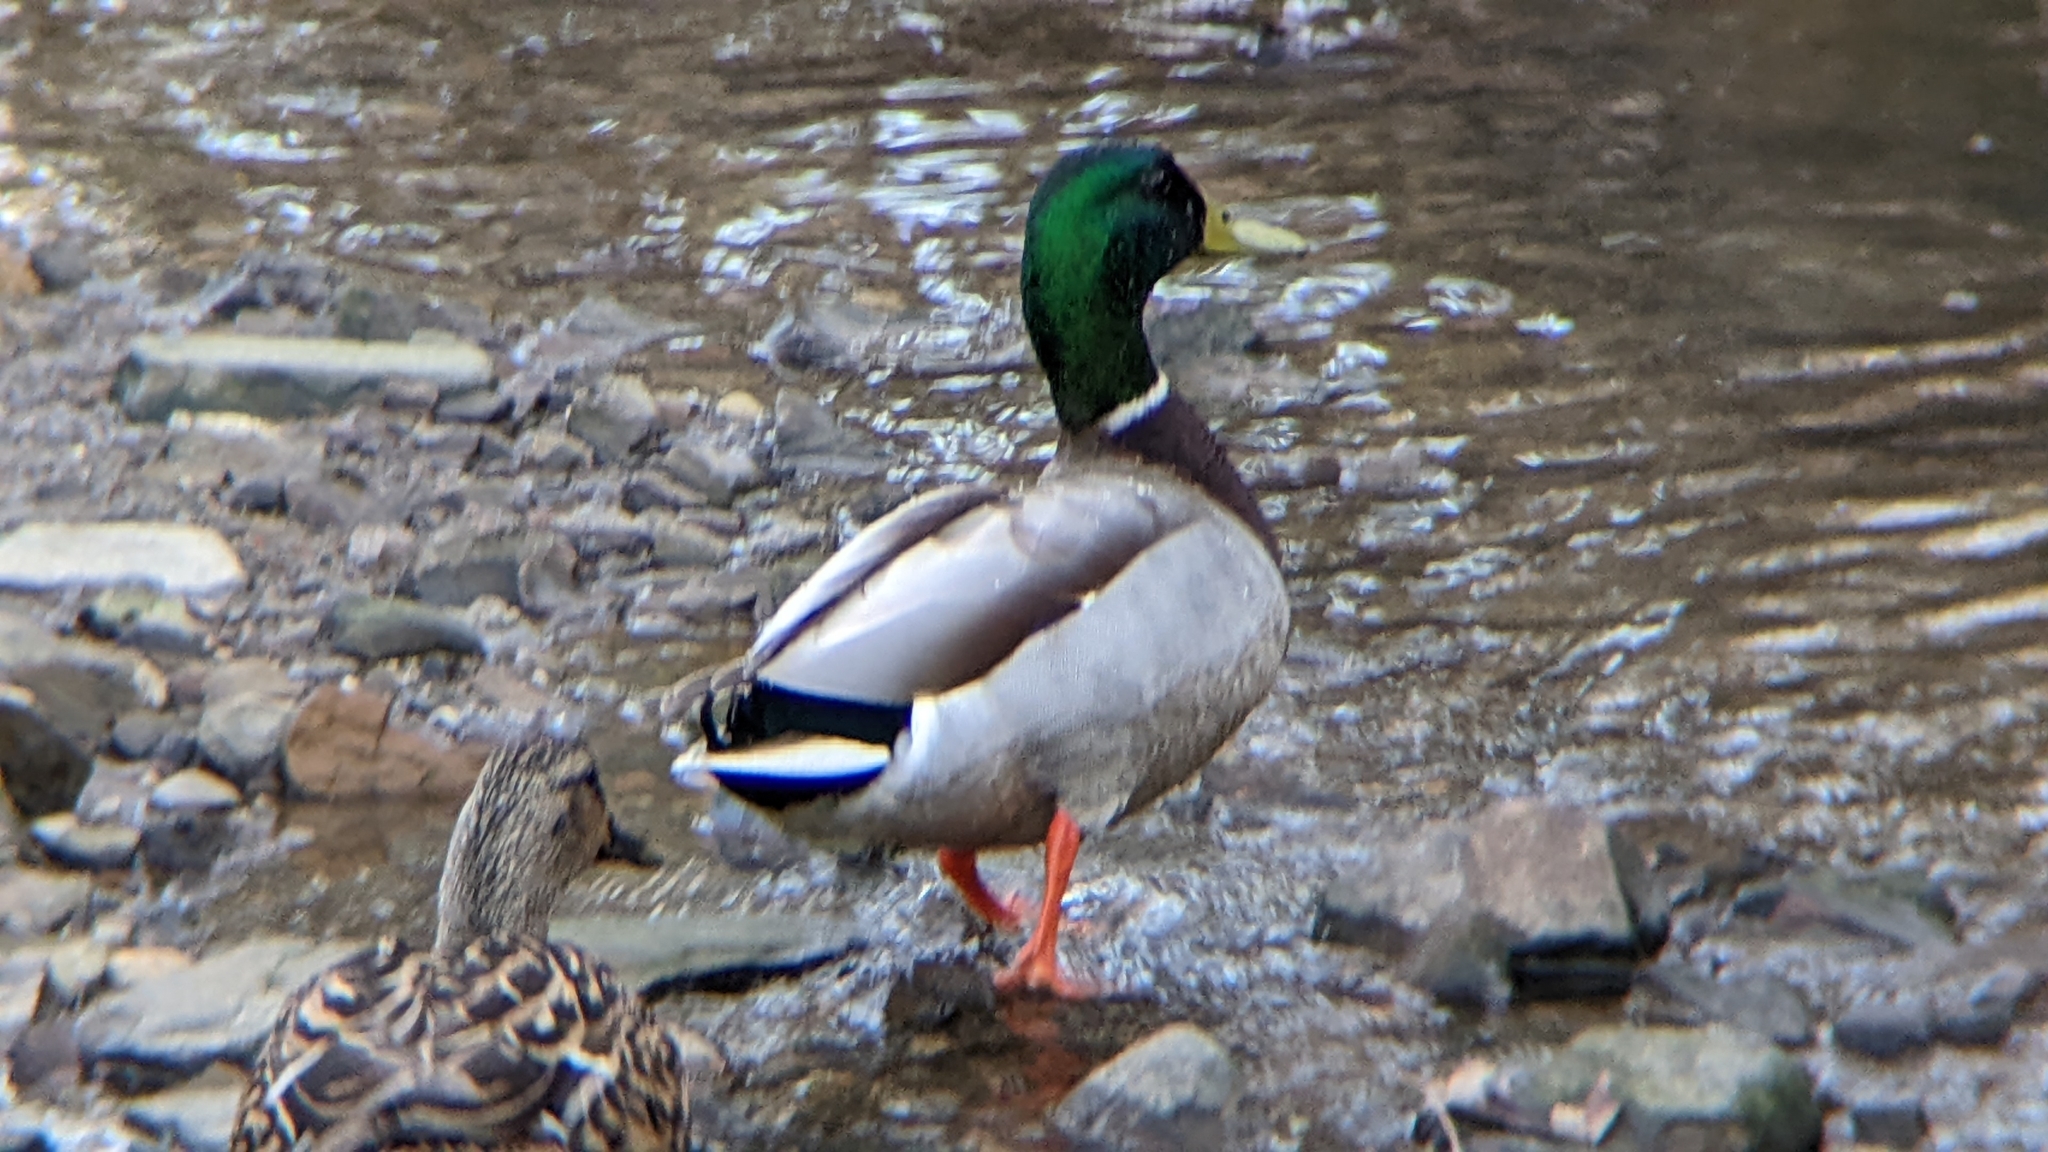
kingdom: Animalia
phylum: Chordata
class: Aves
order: Anseriformes
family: Anatidae
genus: Anas
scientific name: Anas platyrhynchos
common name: Mallard
